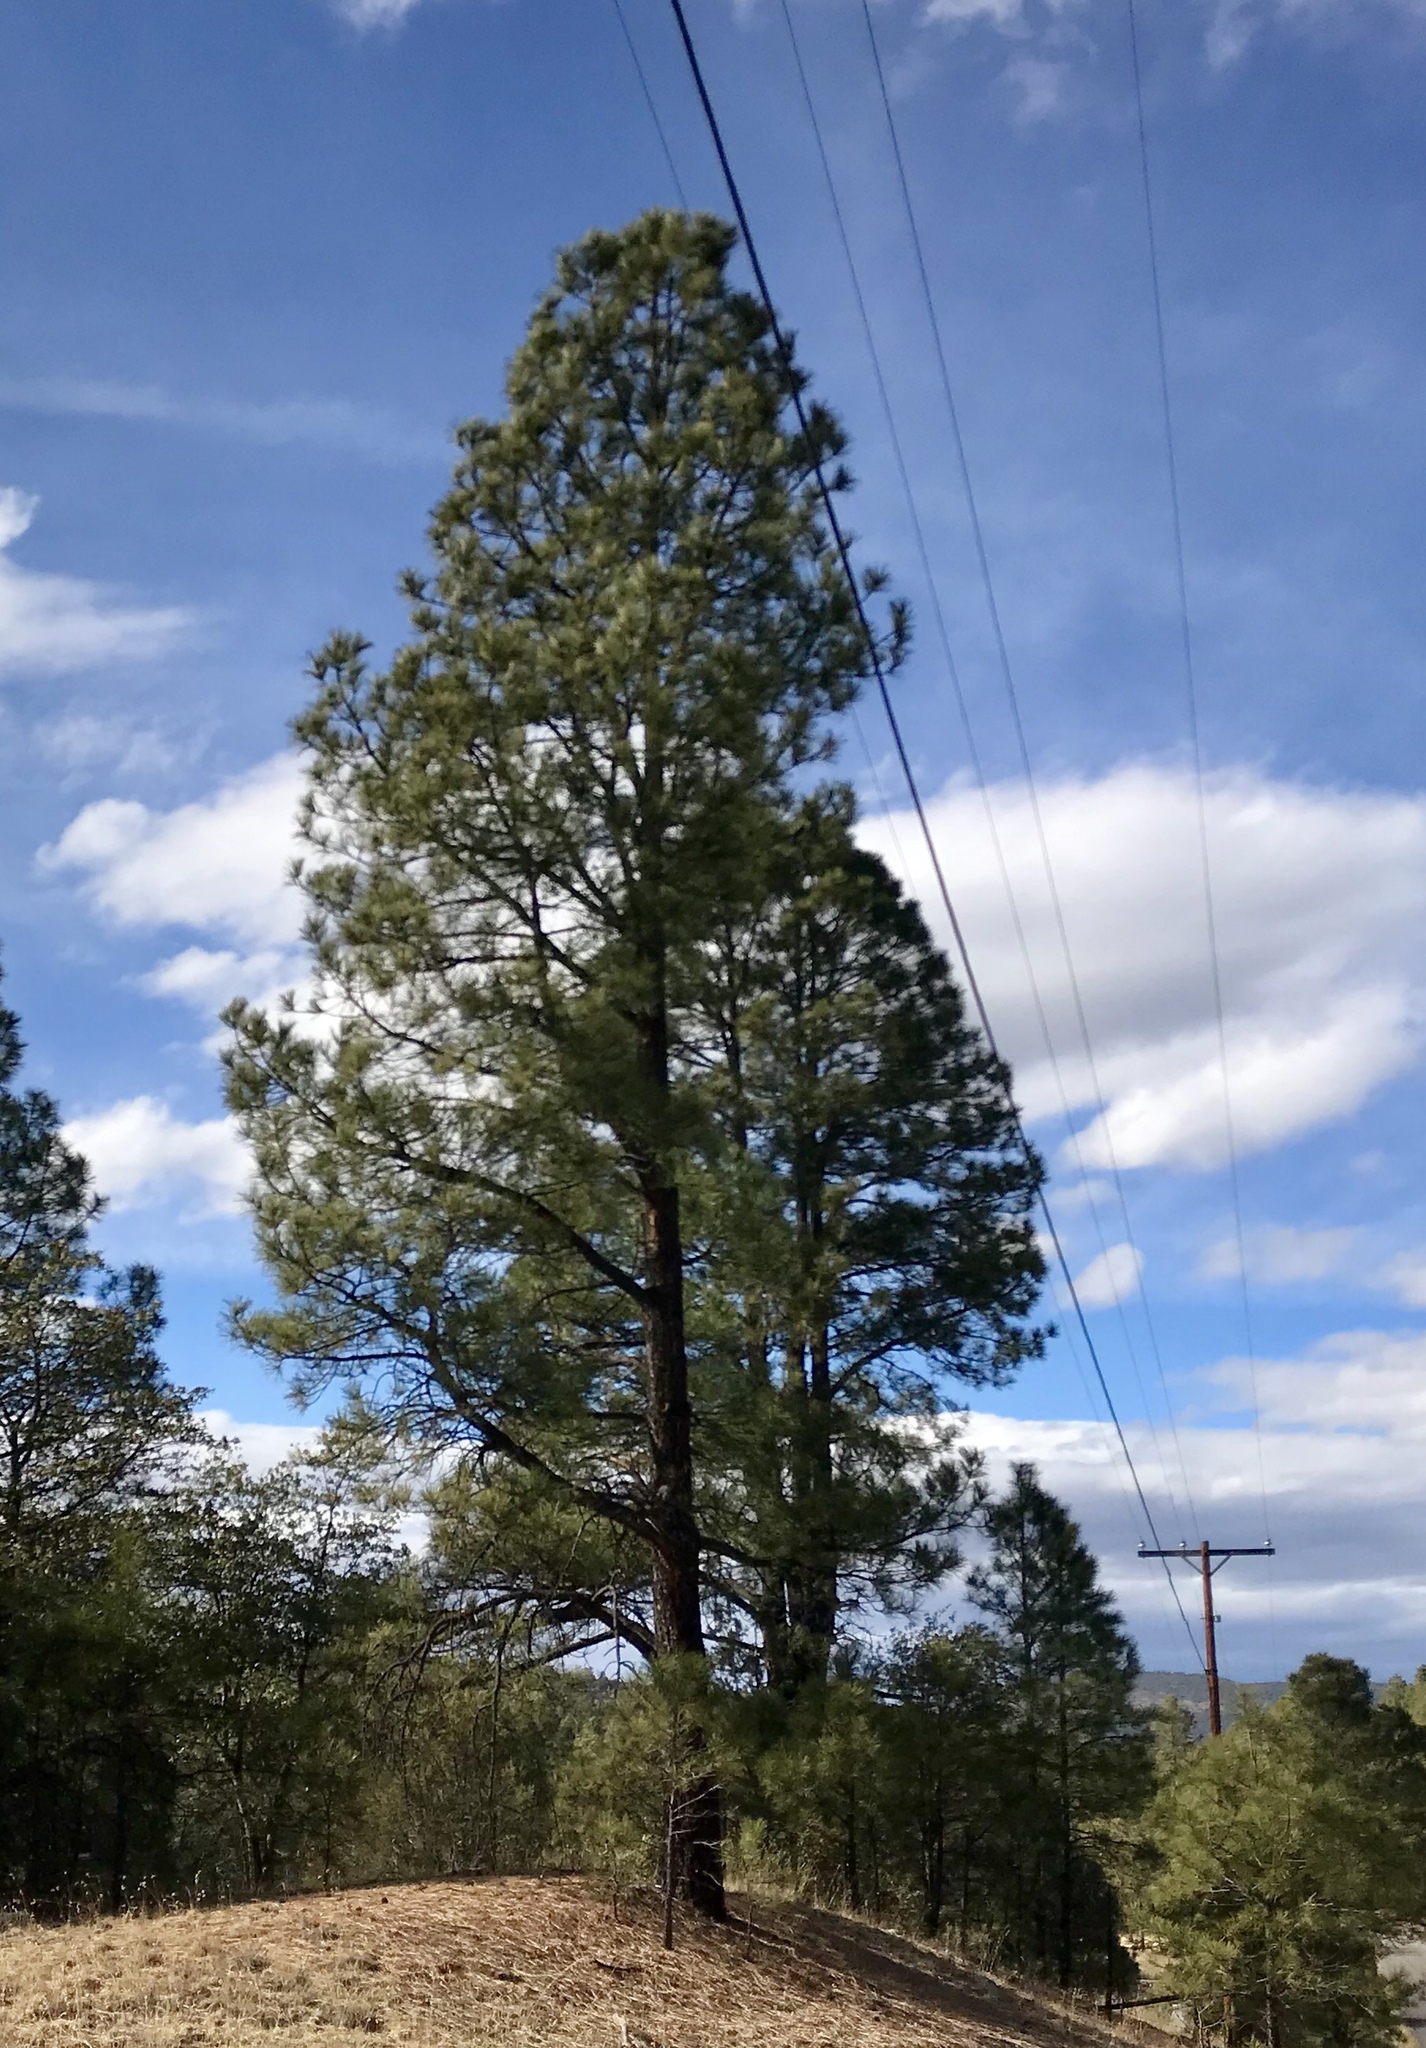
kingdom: Plantae
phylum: Tracheophyta
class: Pinopsida
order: Pinales
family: Pinaceae
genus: Pinus
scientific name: Pinus ponderosa
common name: Western yellow-pine
